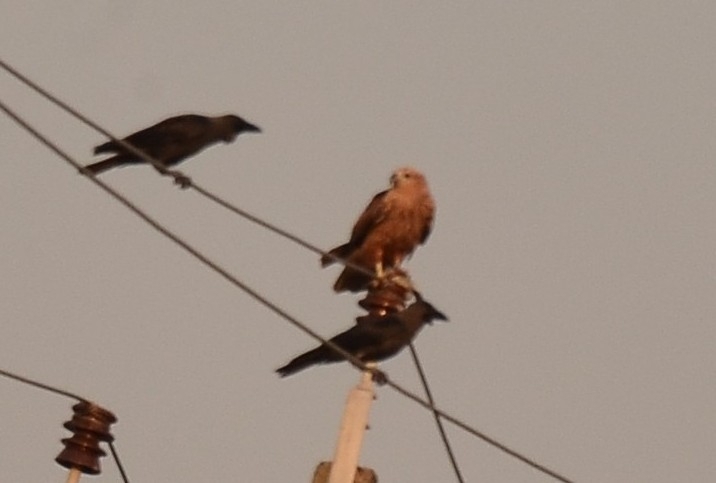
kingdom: Animalia
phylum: Chordata
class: Aves
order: Accipitriformes
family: Accipitridae
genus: Haliastur
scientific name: Haliastur indus
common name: Brahminy kite
